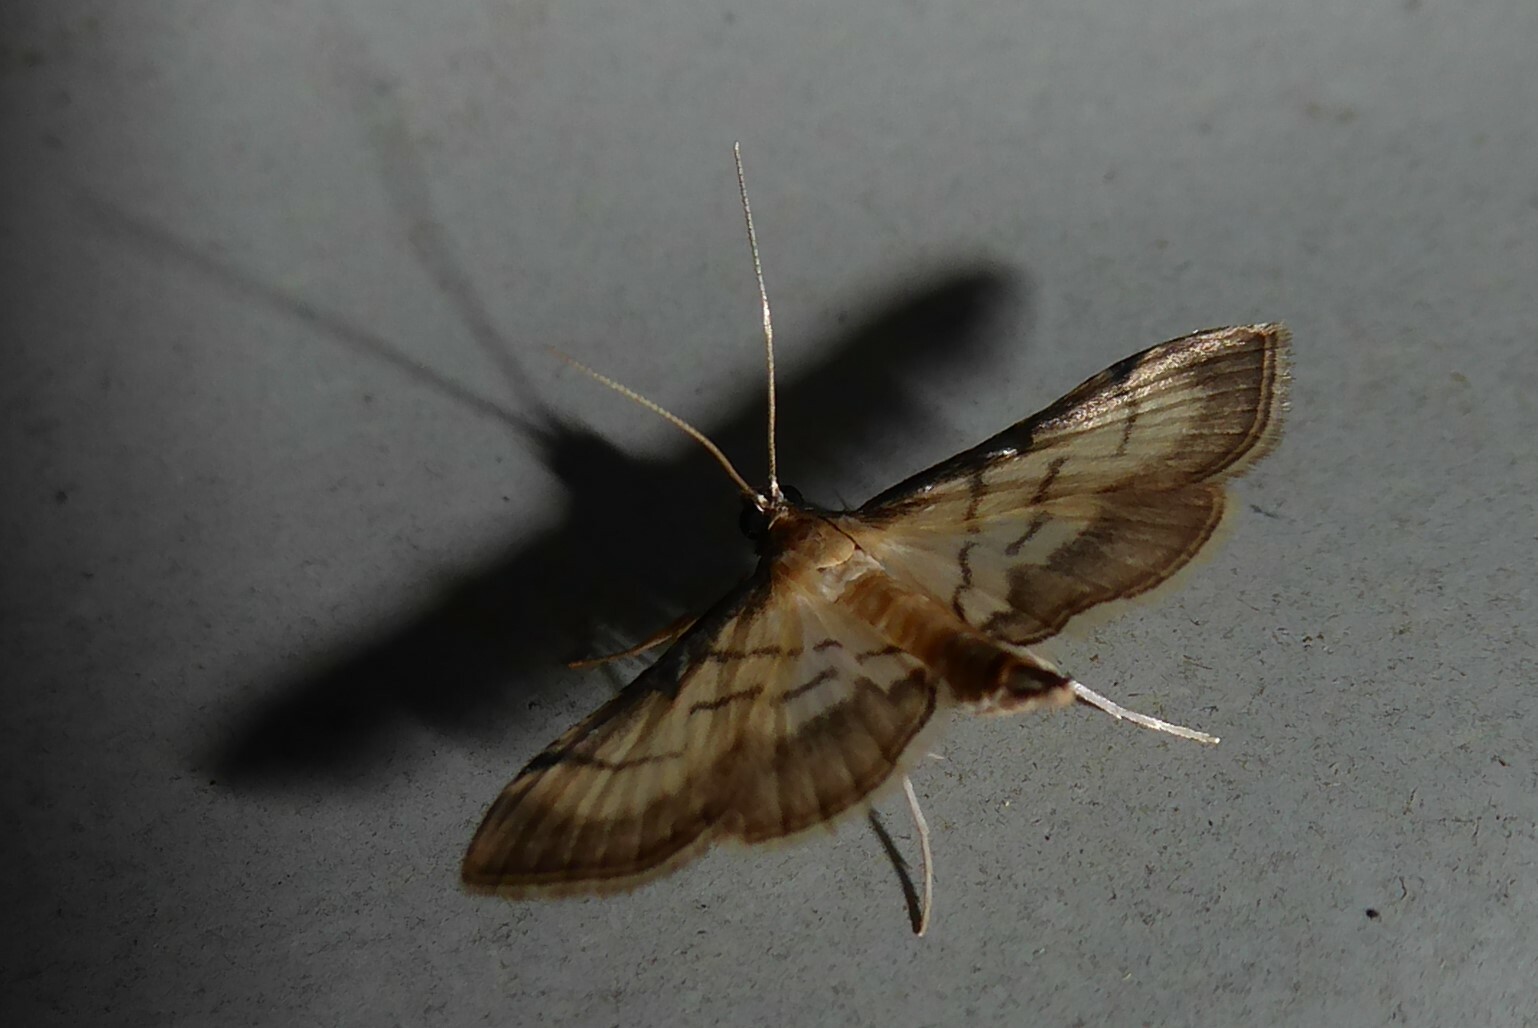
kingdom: Animalia
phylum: Arthropoda
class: Insecta
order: Lepidoptera
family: Crambidae
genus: Cnaphalocrocis
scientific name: Cnaphalocrocis poeyalis
